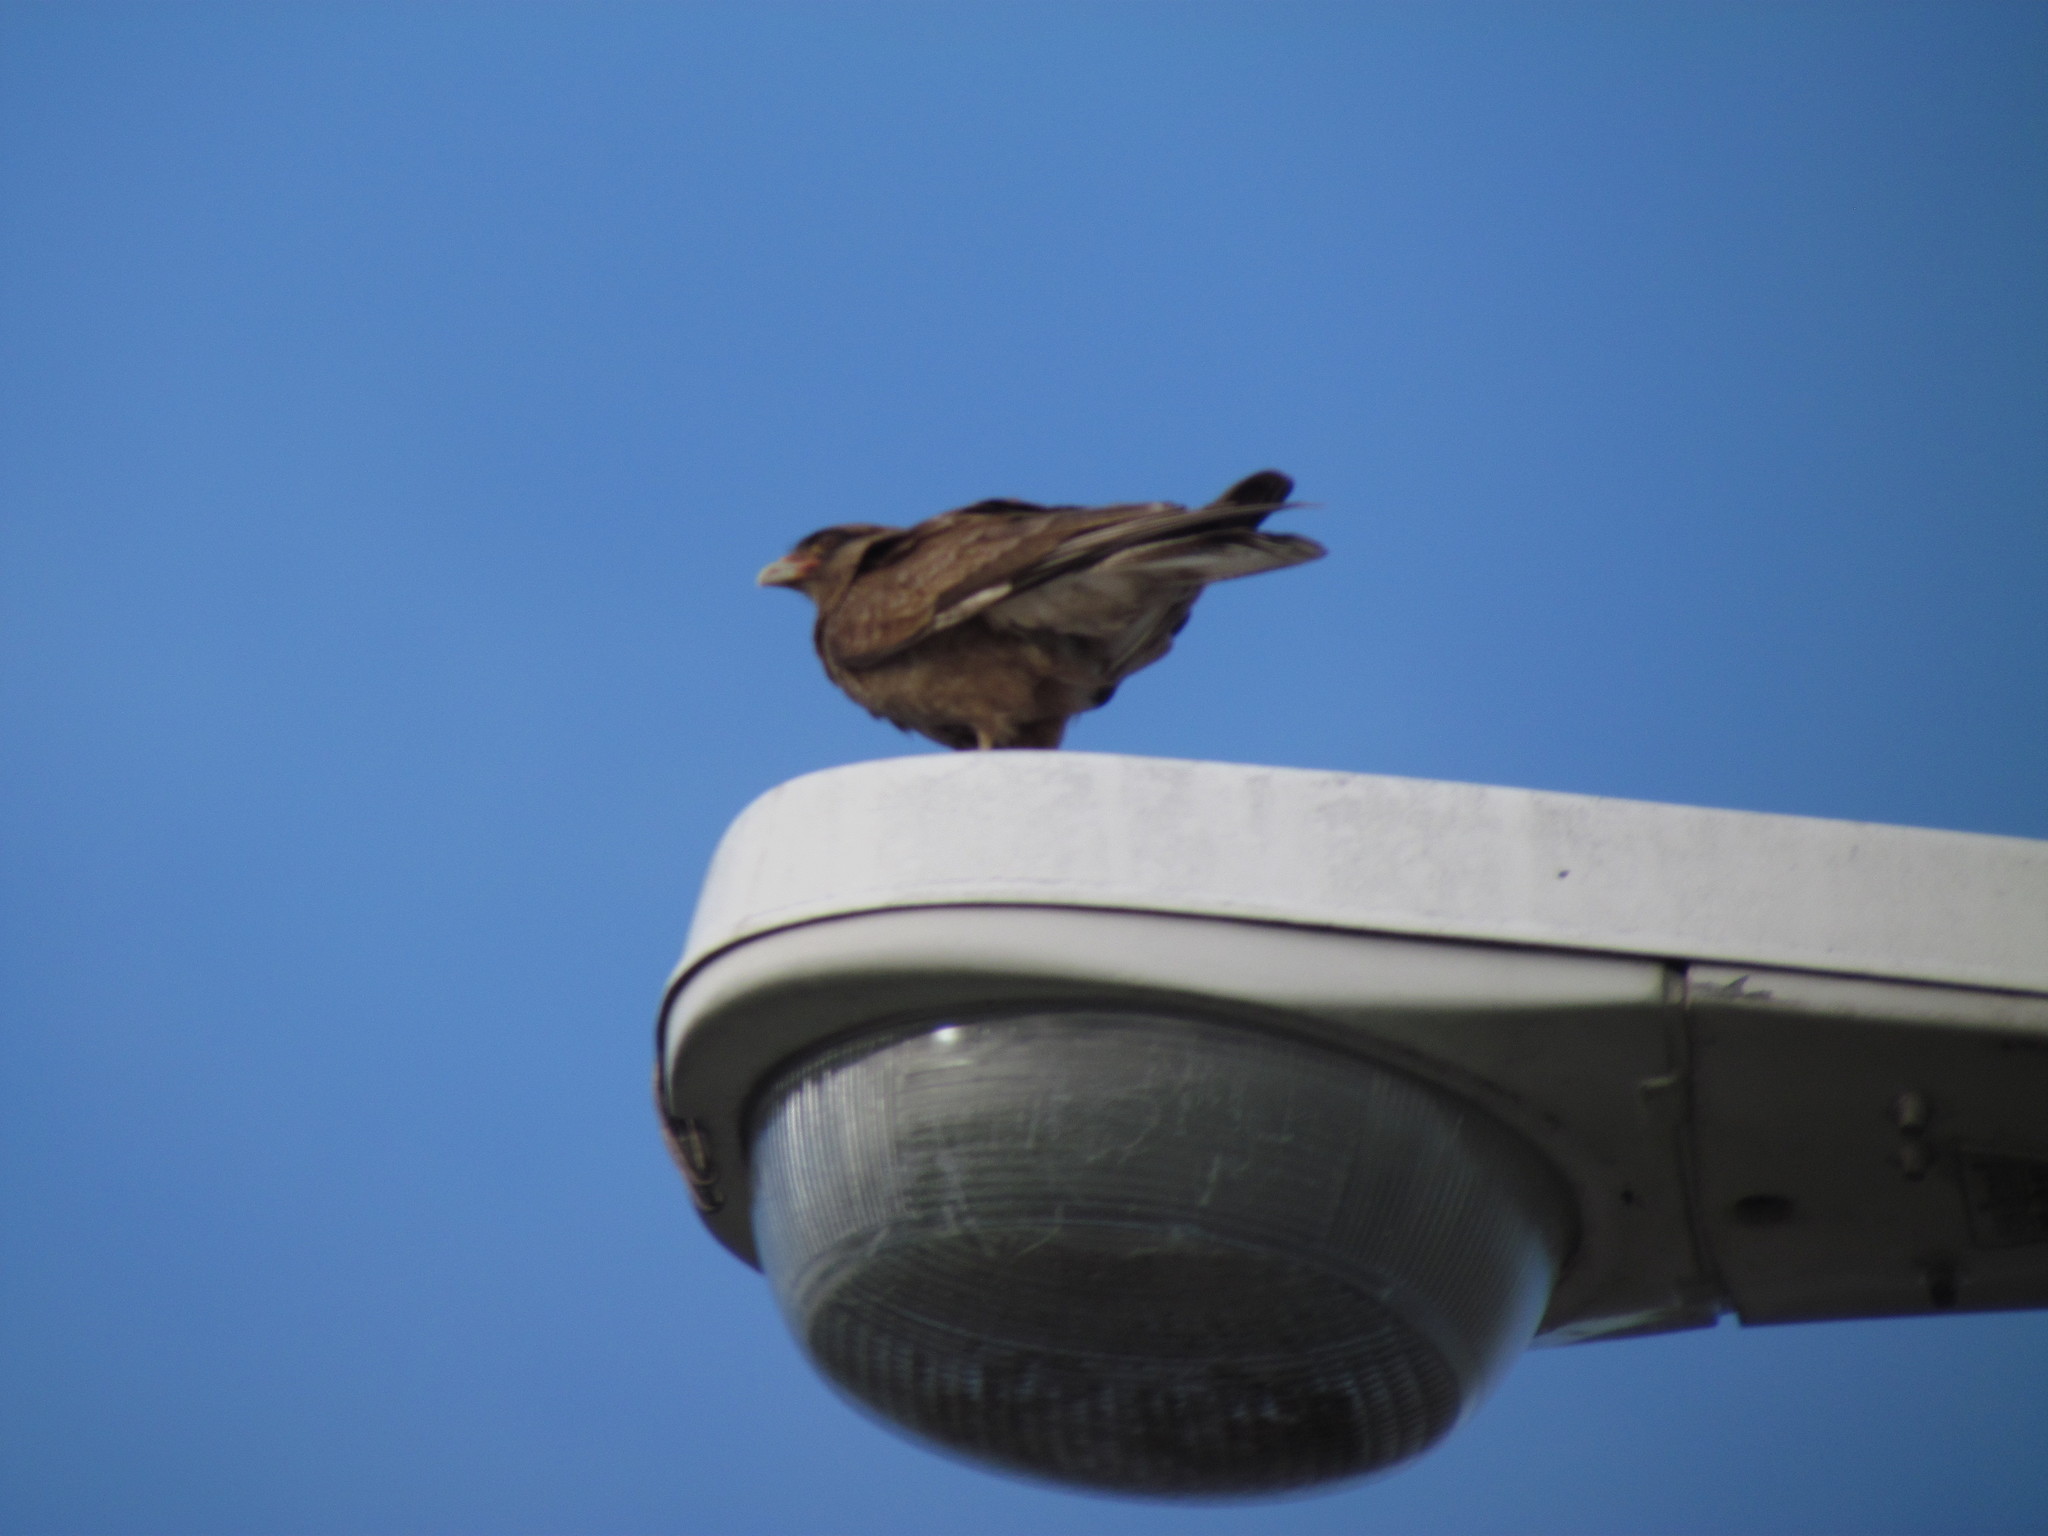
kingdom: Animalia
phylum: Chordata
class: Aves
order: Falconiformes
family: Falconidae
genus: Daptrius
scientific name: Daptrius
